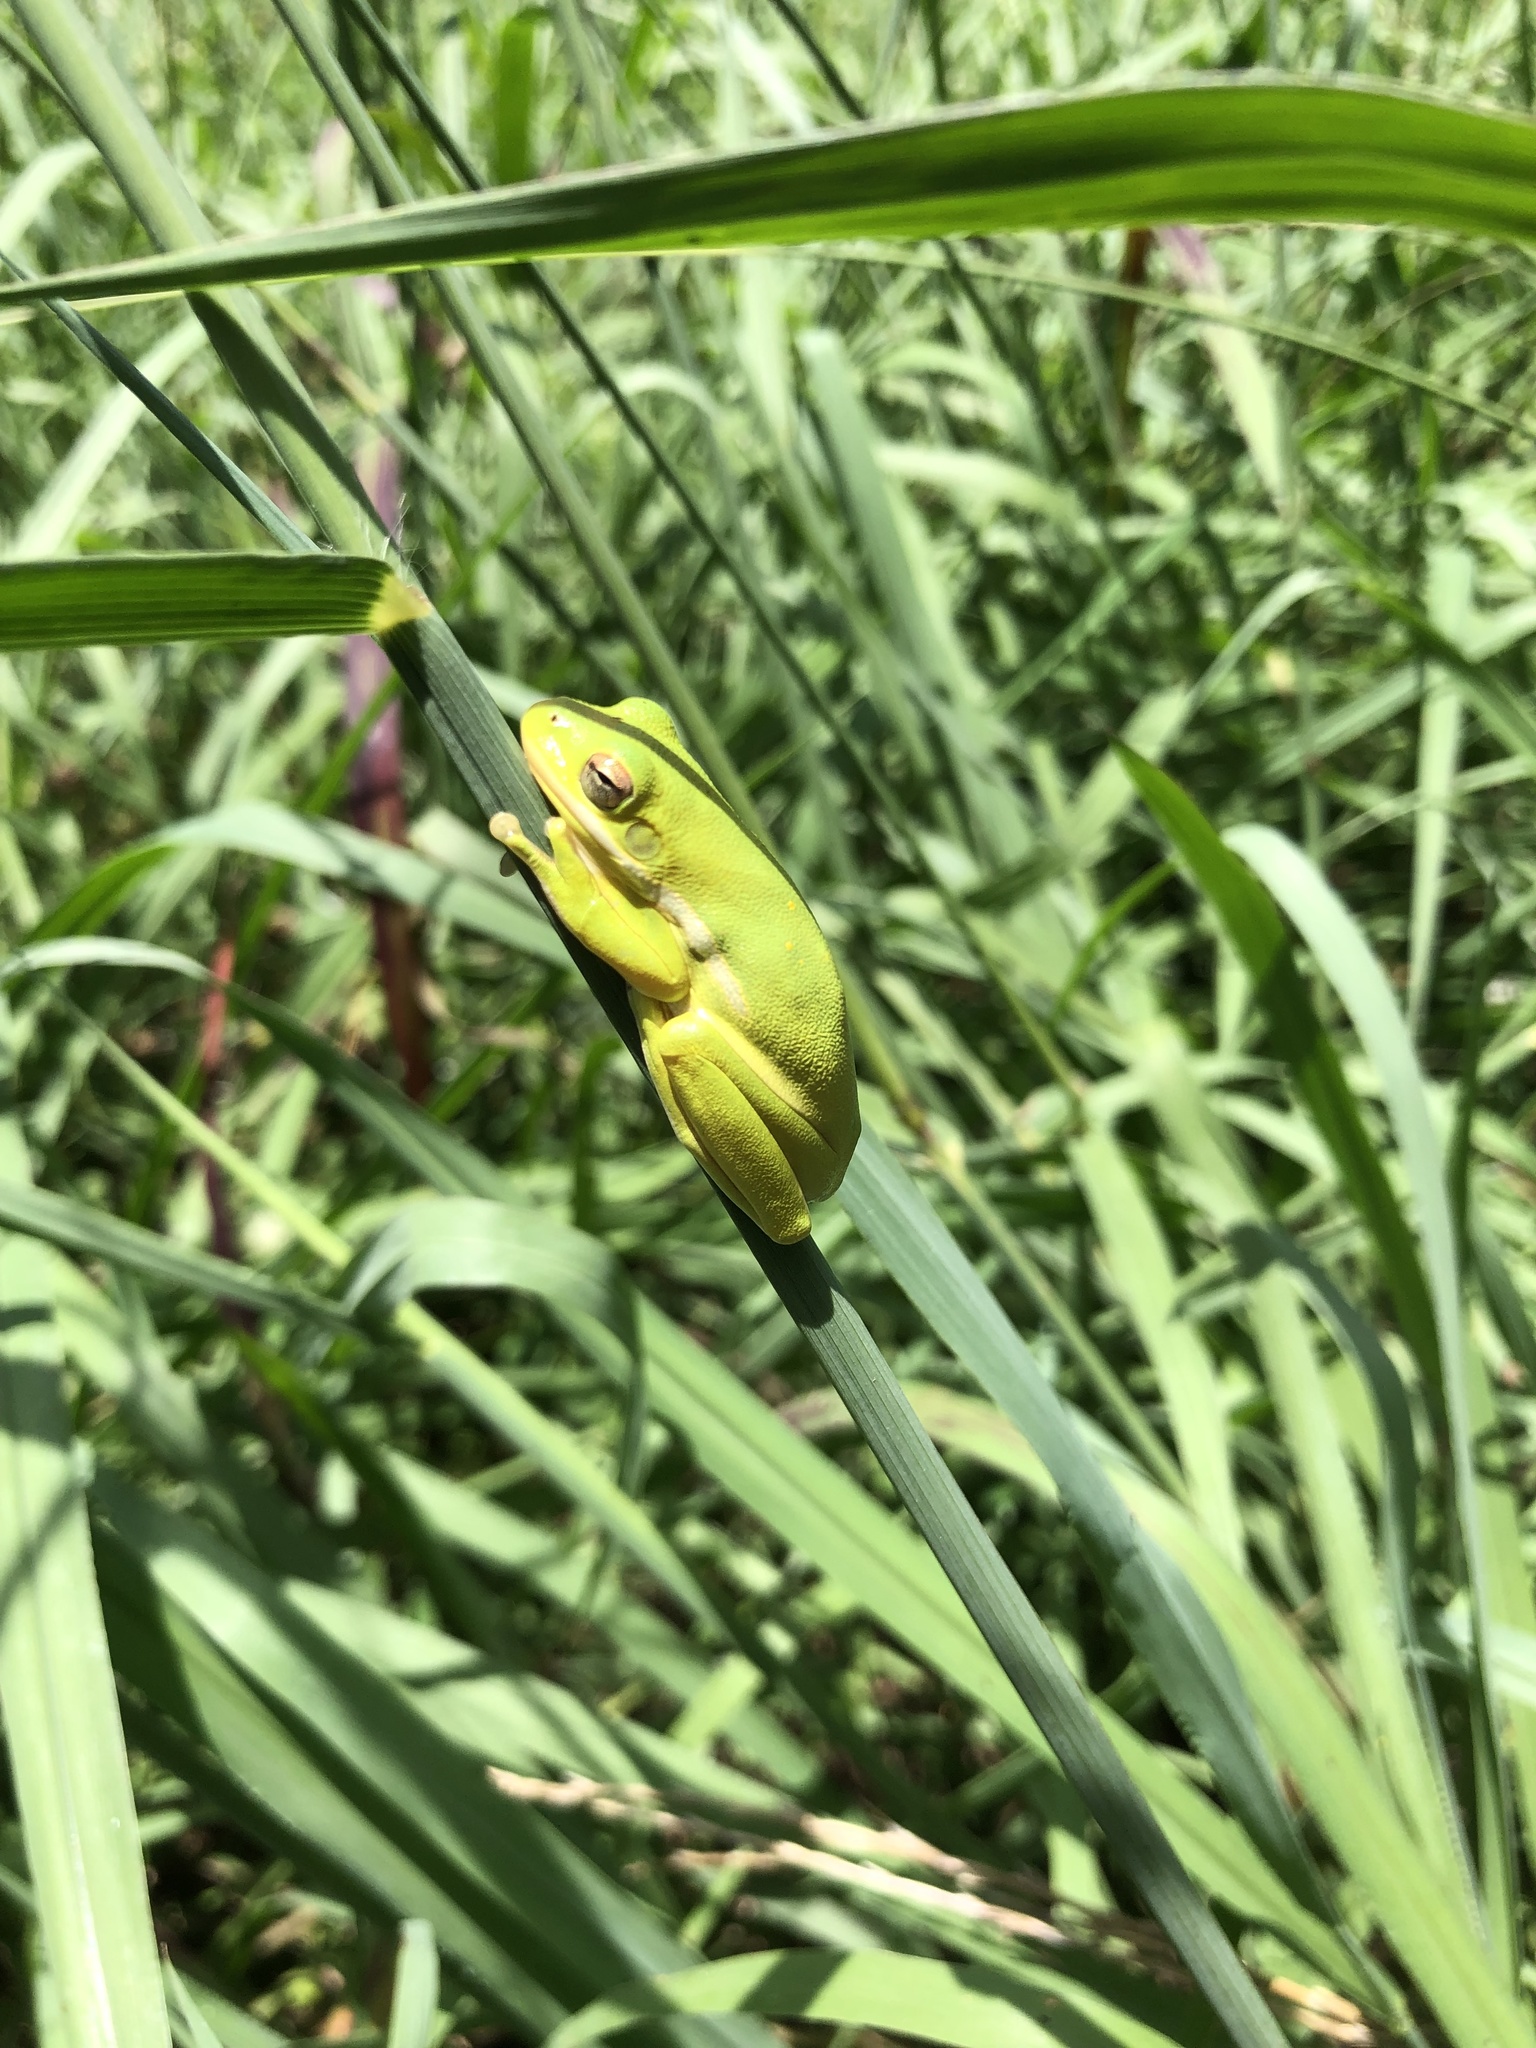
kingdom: Animalia
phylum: Chordata
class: Amphibia
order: Anura
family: Hylidae
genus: Dryophytes
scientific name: Dryophytes cinereus
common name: Green treefrog
